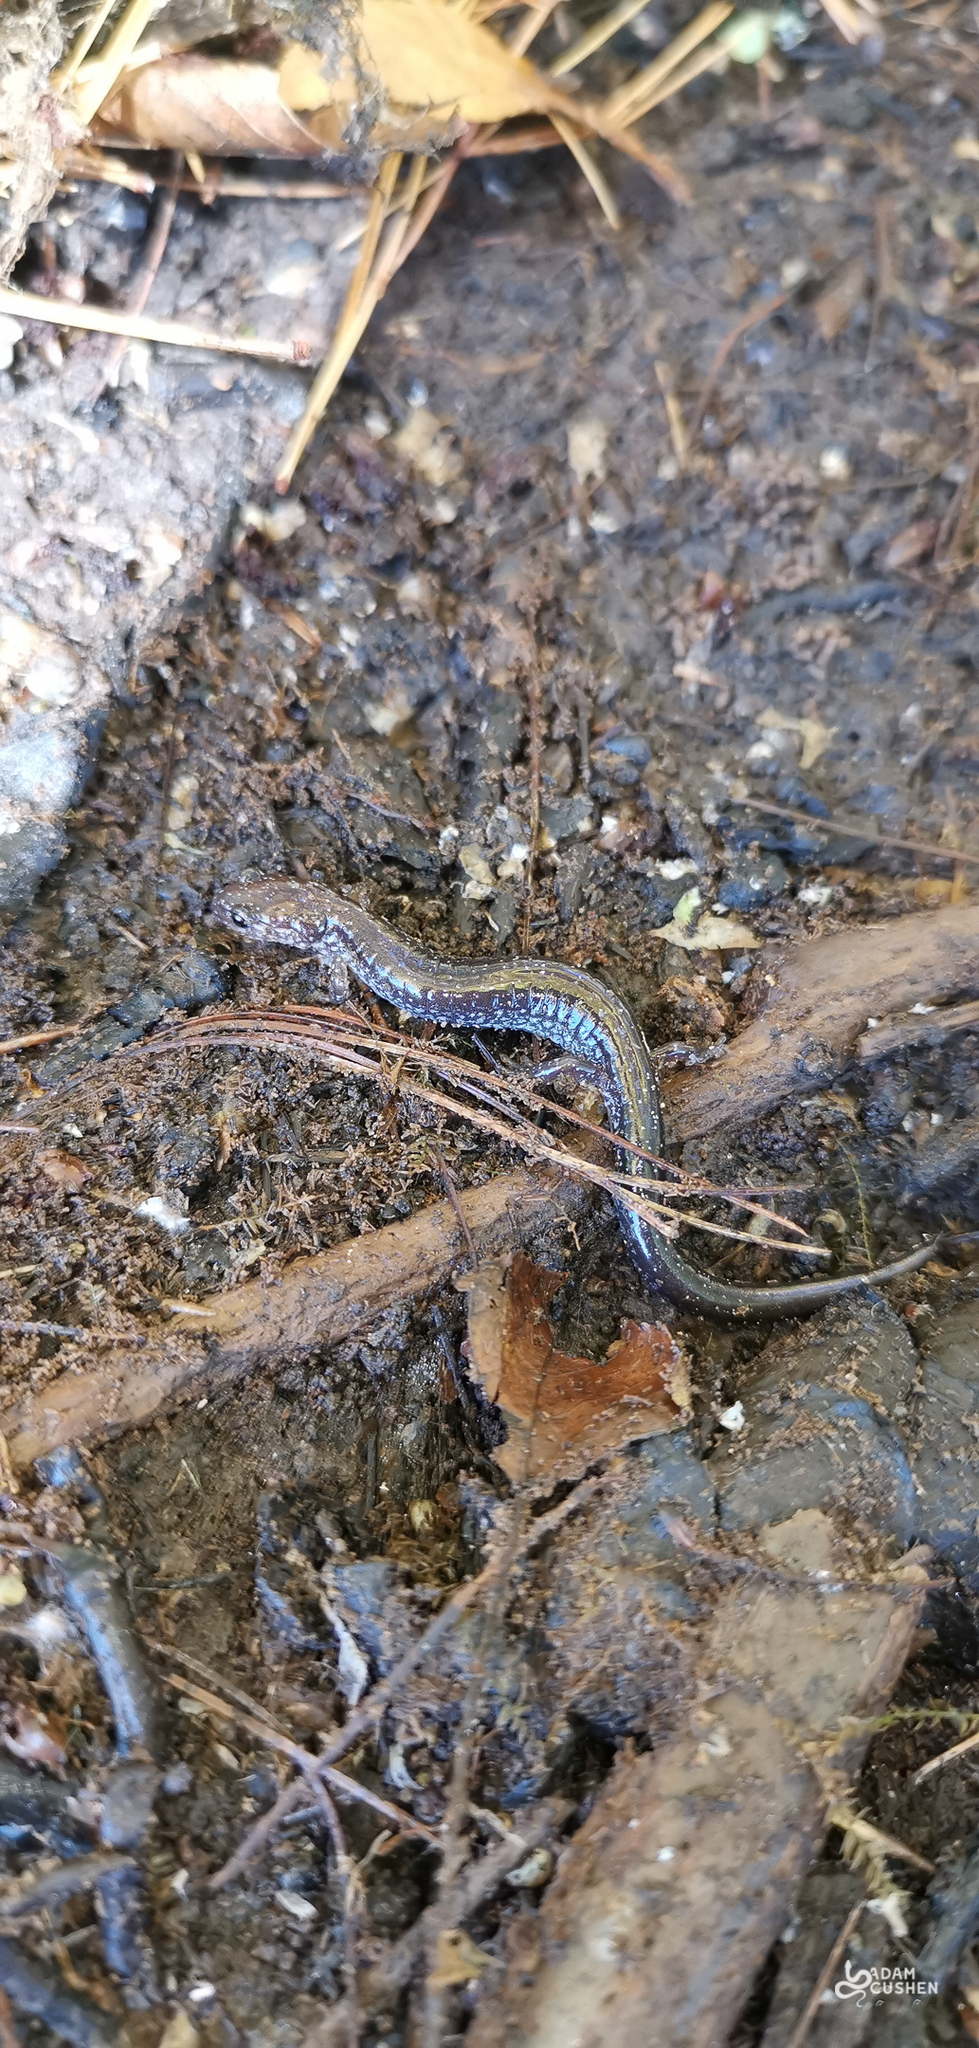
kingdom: Animalia
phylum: Chordata
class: Amphibia
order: Caudata
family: Plethodontidae
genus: Plethodon
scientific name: Plethodon cinereus
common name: Redback salamander
